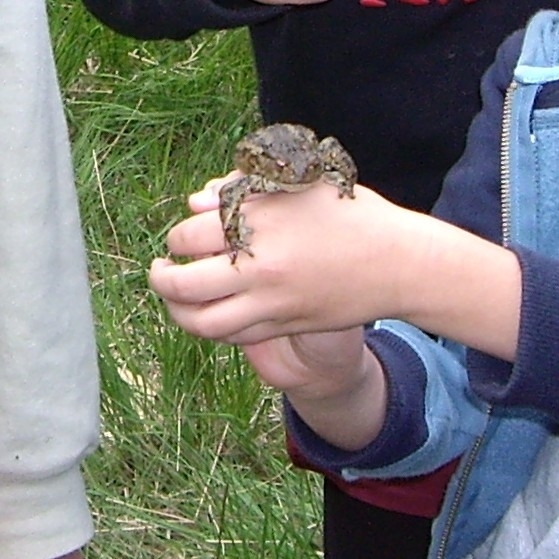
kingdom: Animalia
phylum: Chordata
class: Amphibia
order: Anura
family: Bufonidae
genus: Bufo
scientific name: Bufo bufo
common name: Common toad
